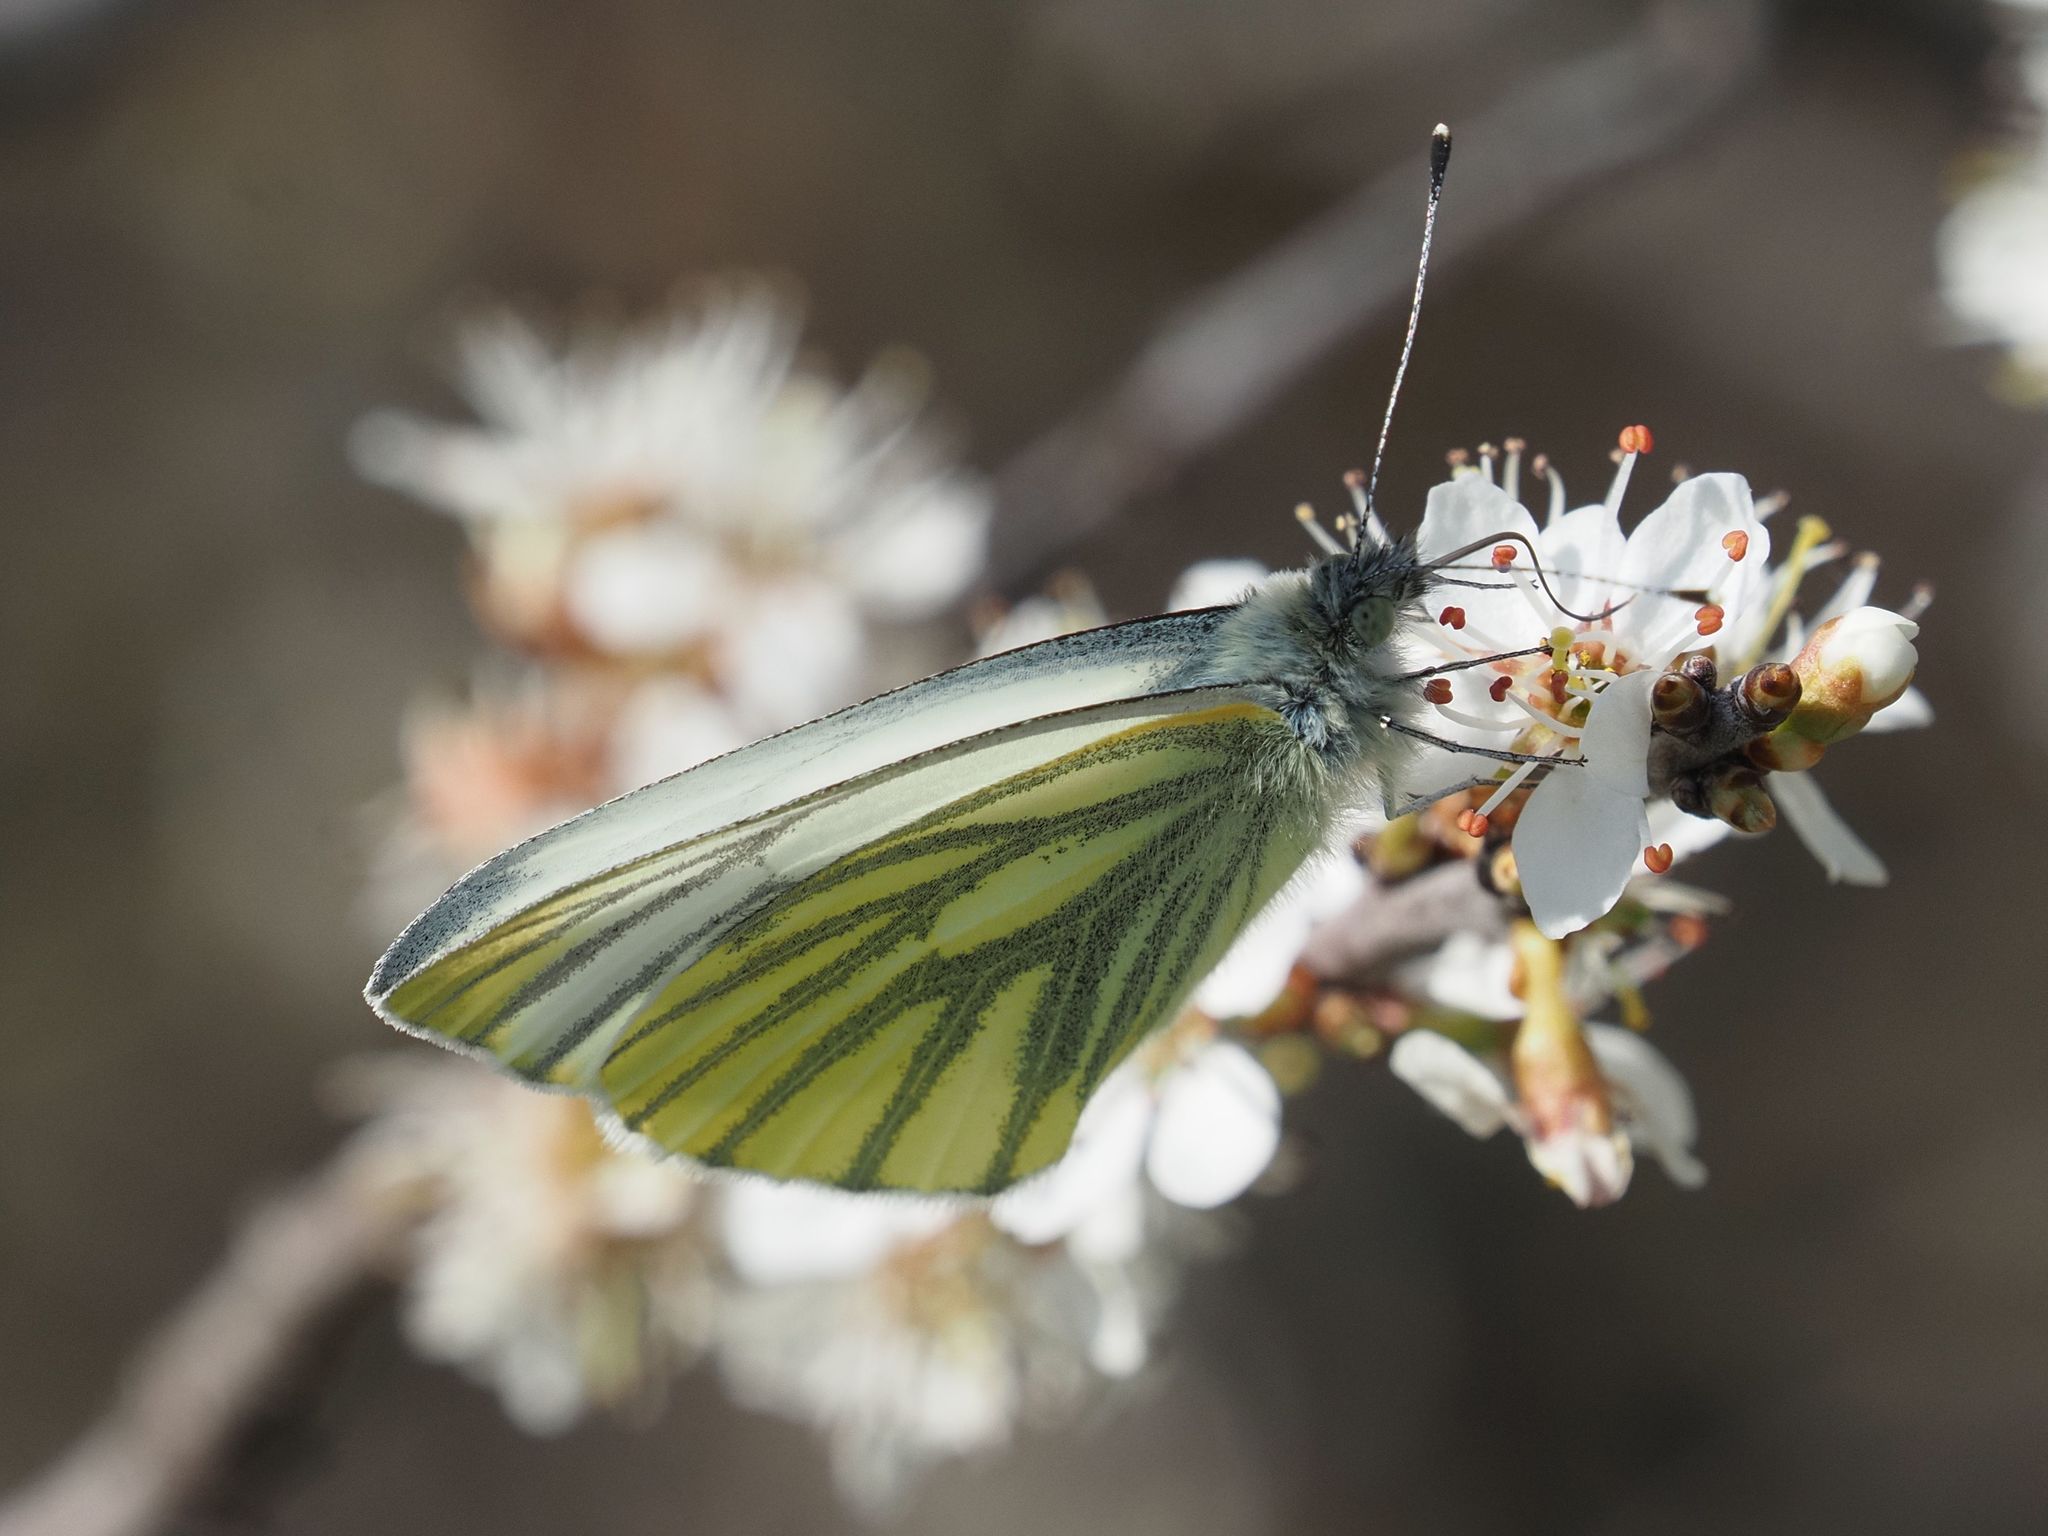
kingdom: Animalia
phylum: Arthropoda
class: Insecta
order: Lepidoptera
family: Pieridae
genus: Pieris
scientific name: Pieris napi
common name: Green-veined white
